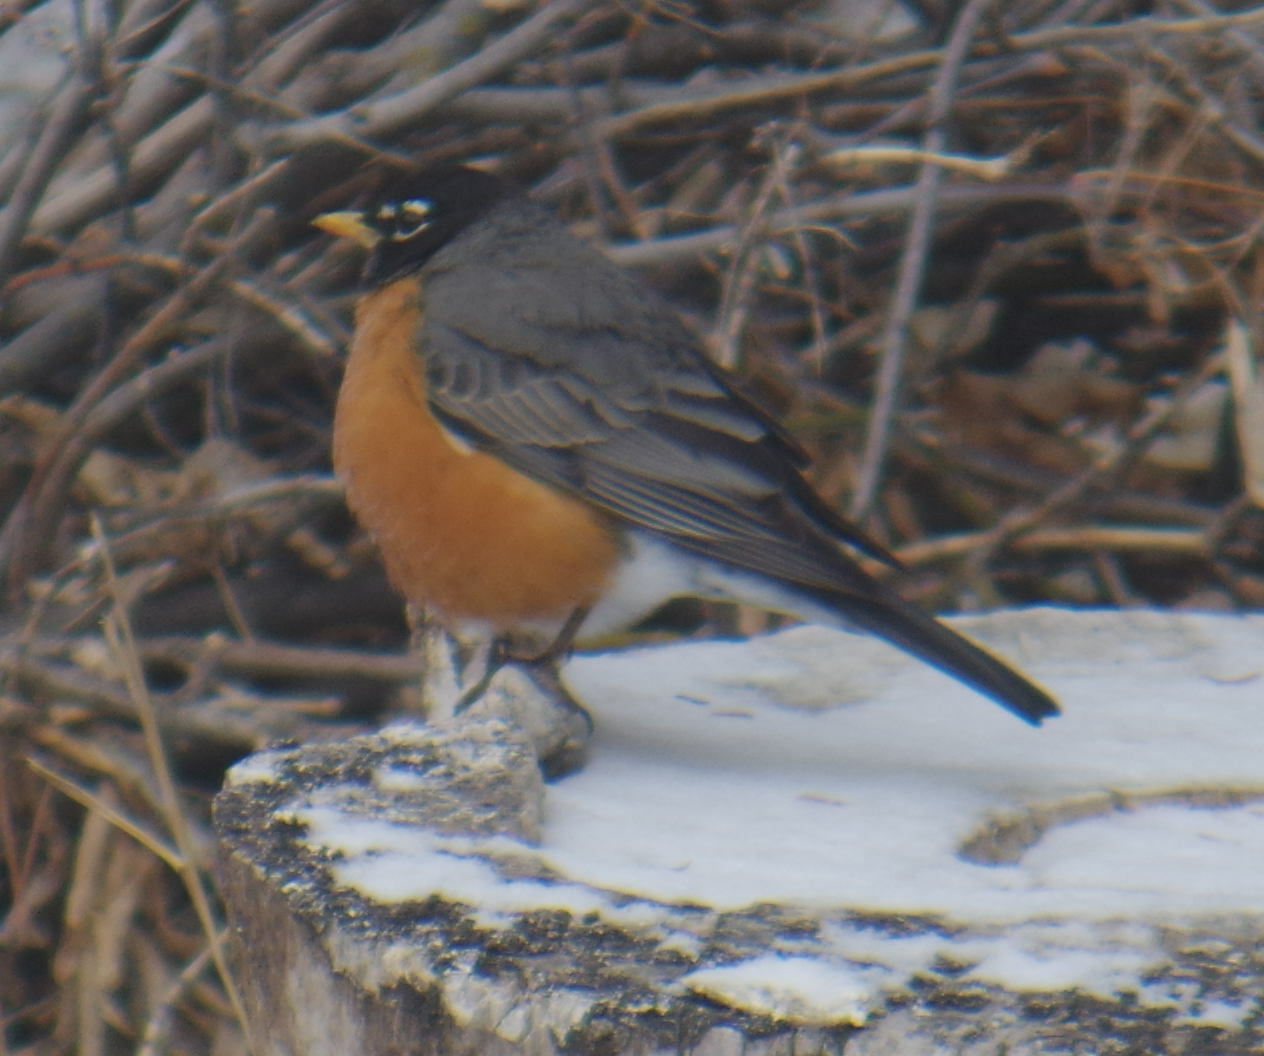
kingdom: Animalia
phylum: Chordata
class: Aves
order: Passeriformes
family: Turdidae
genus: Turdus
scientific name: Turdus migratorius
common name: American robin
